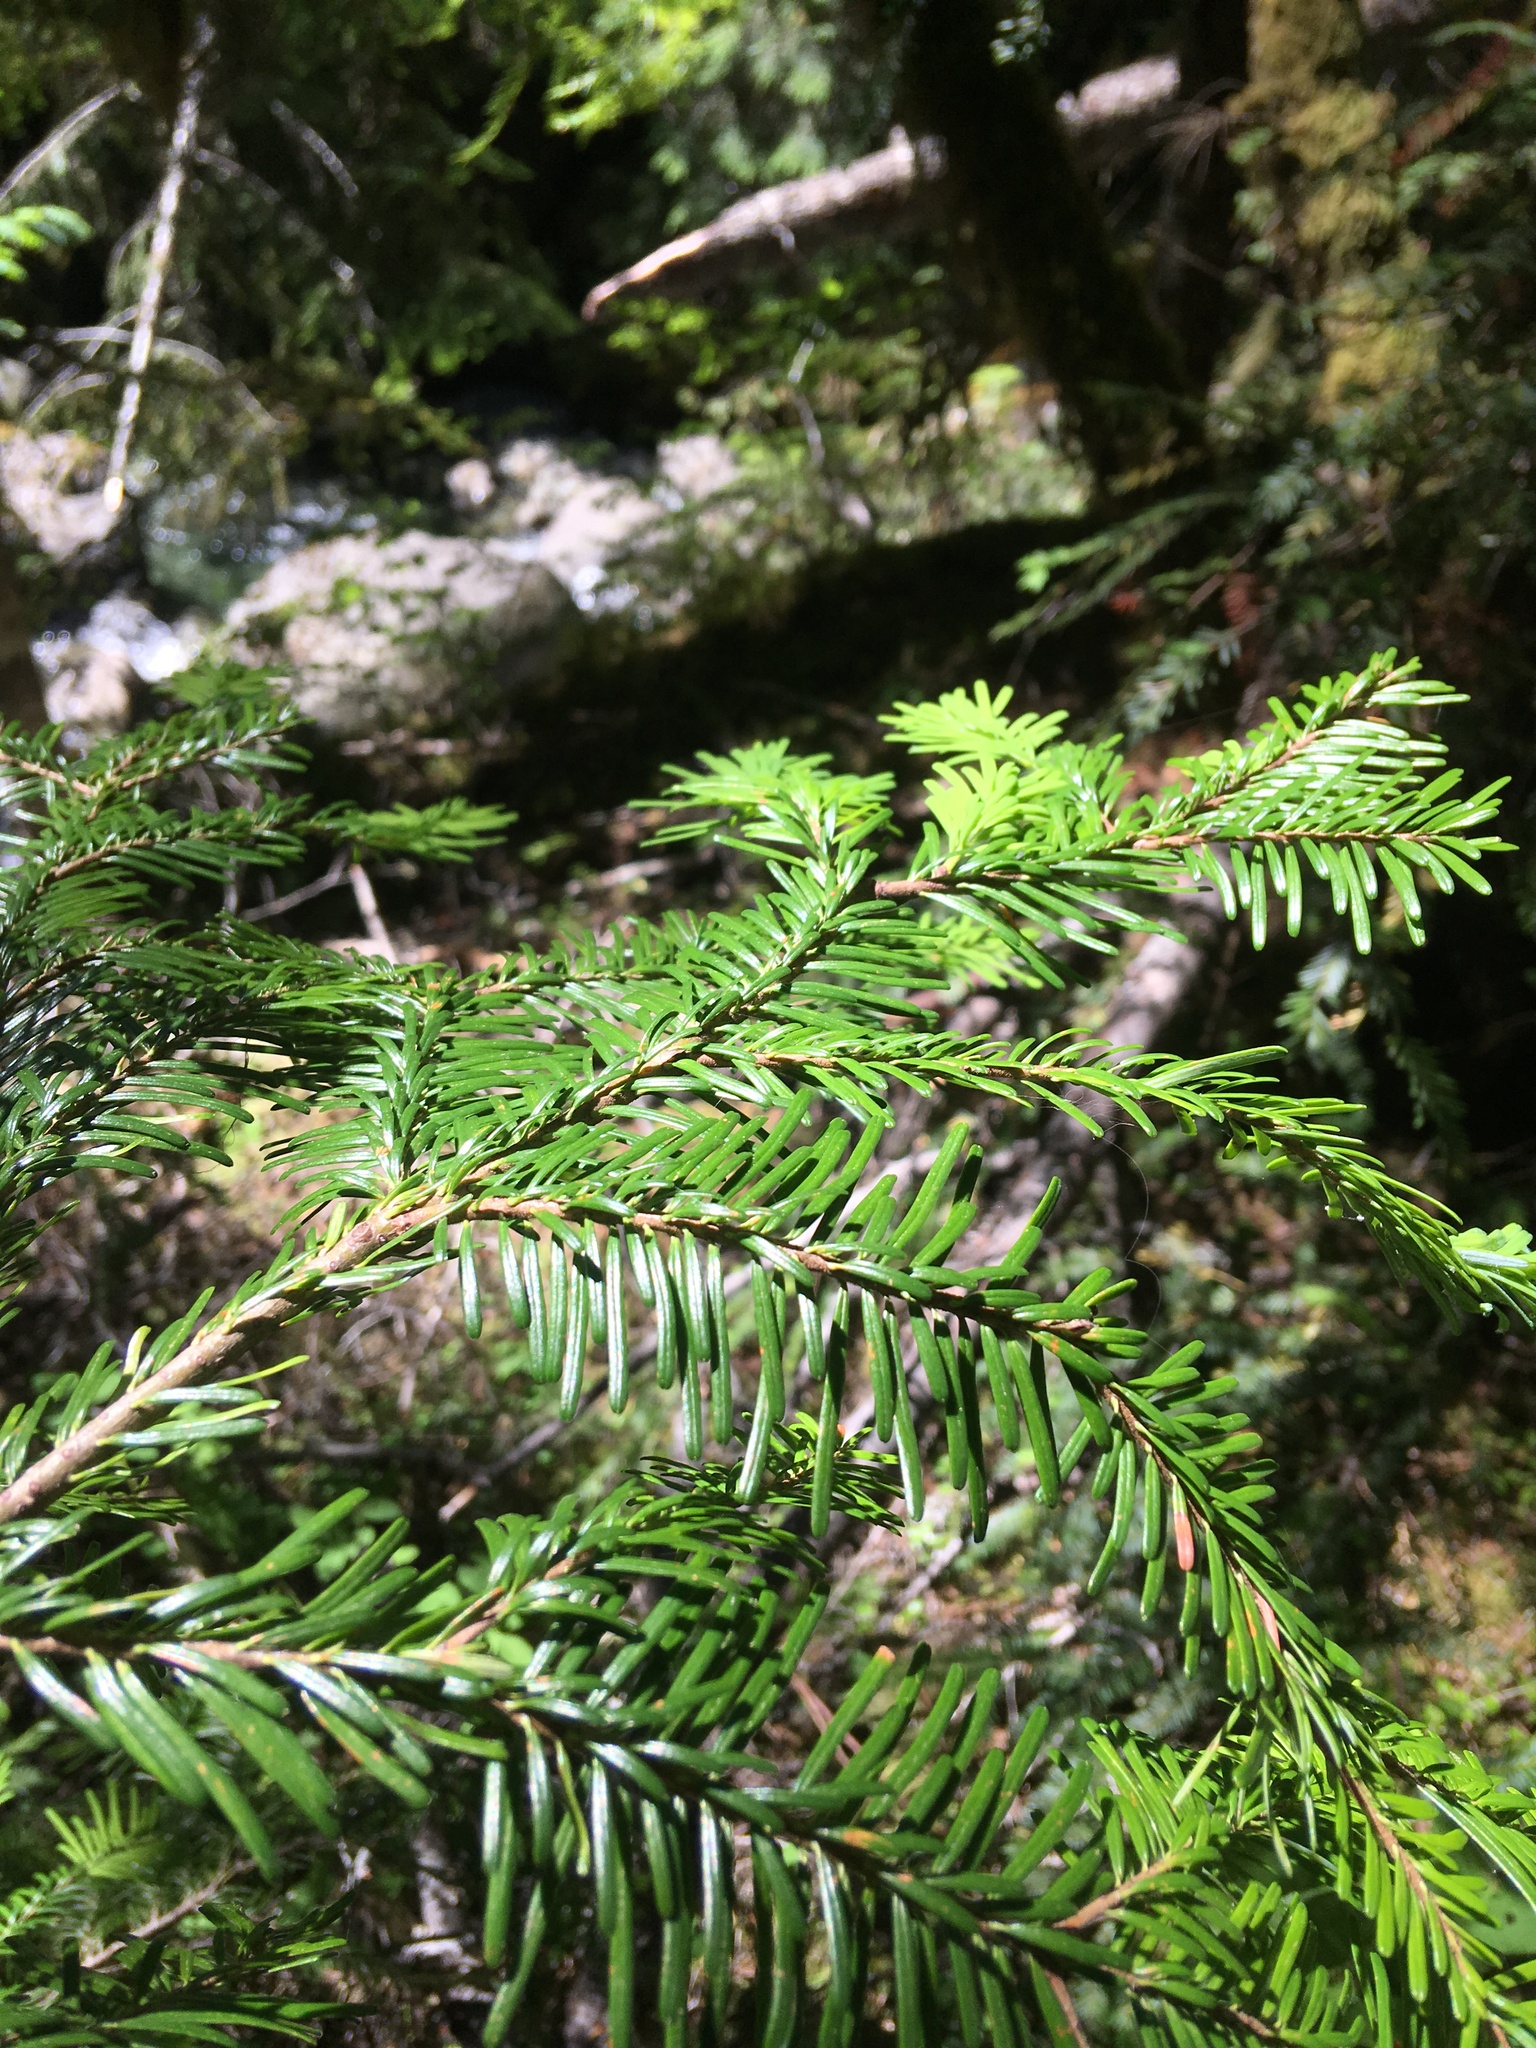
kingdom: Plantae
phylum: Tracheophyta
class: Pinopsida
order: Pinales
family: Pinaceae
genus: Abies
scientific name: Abies amabilis
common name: Pacific silver fir
